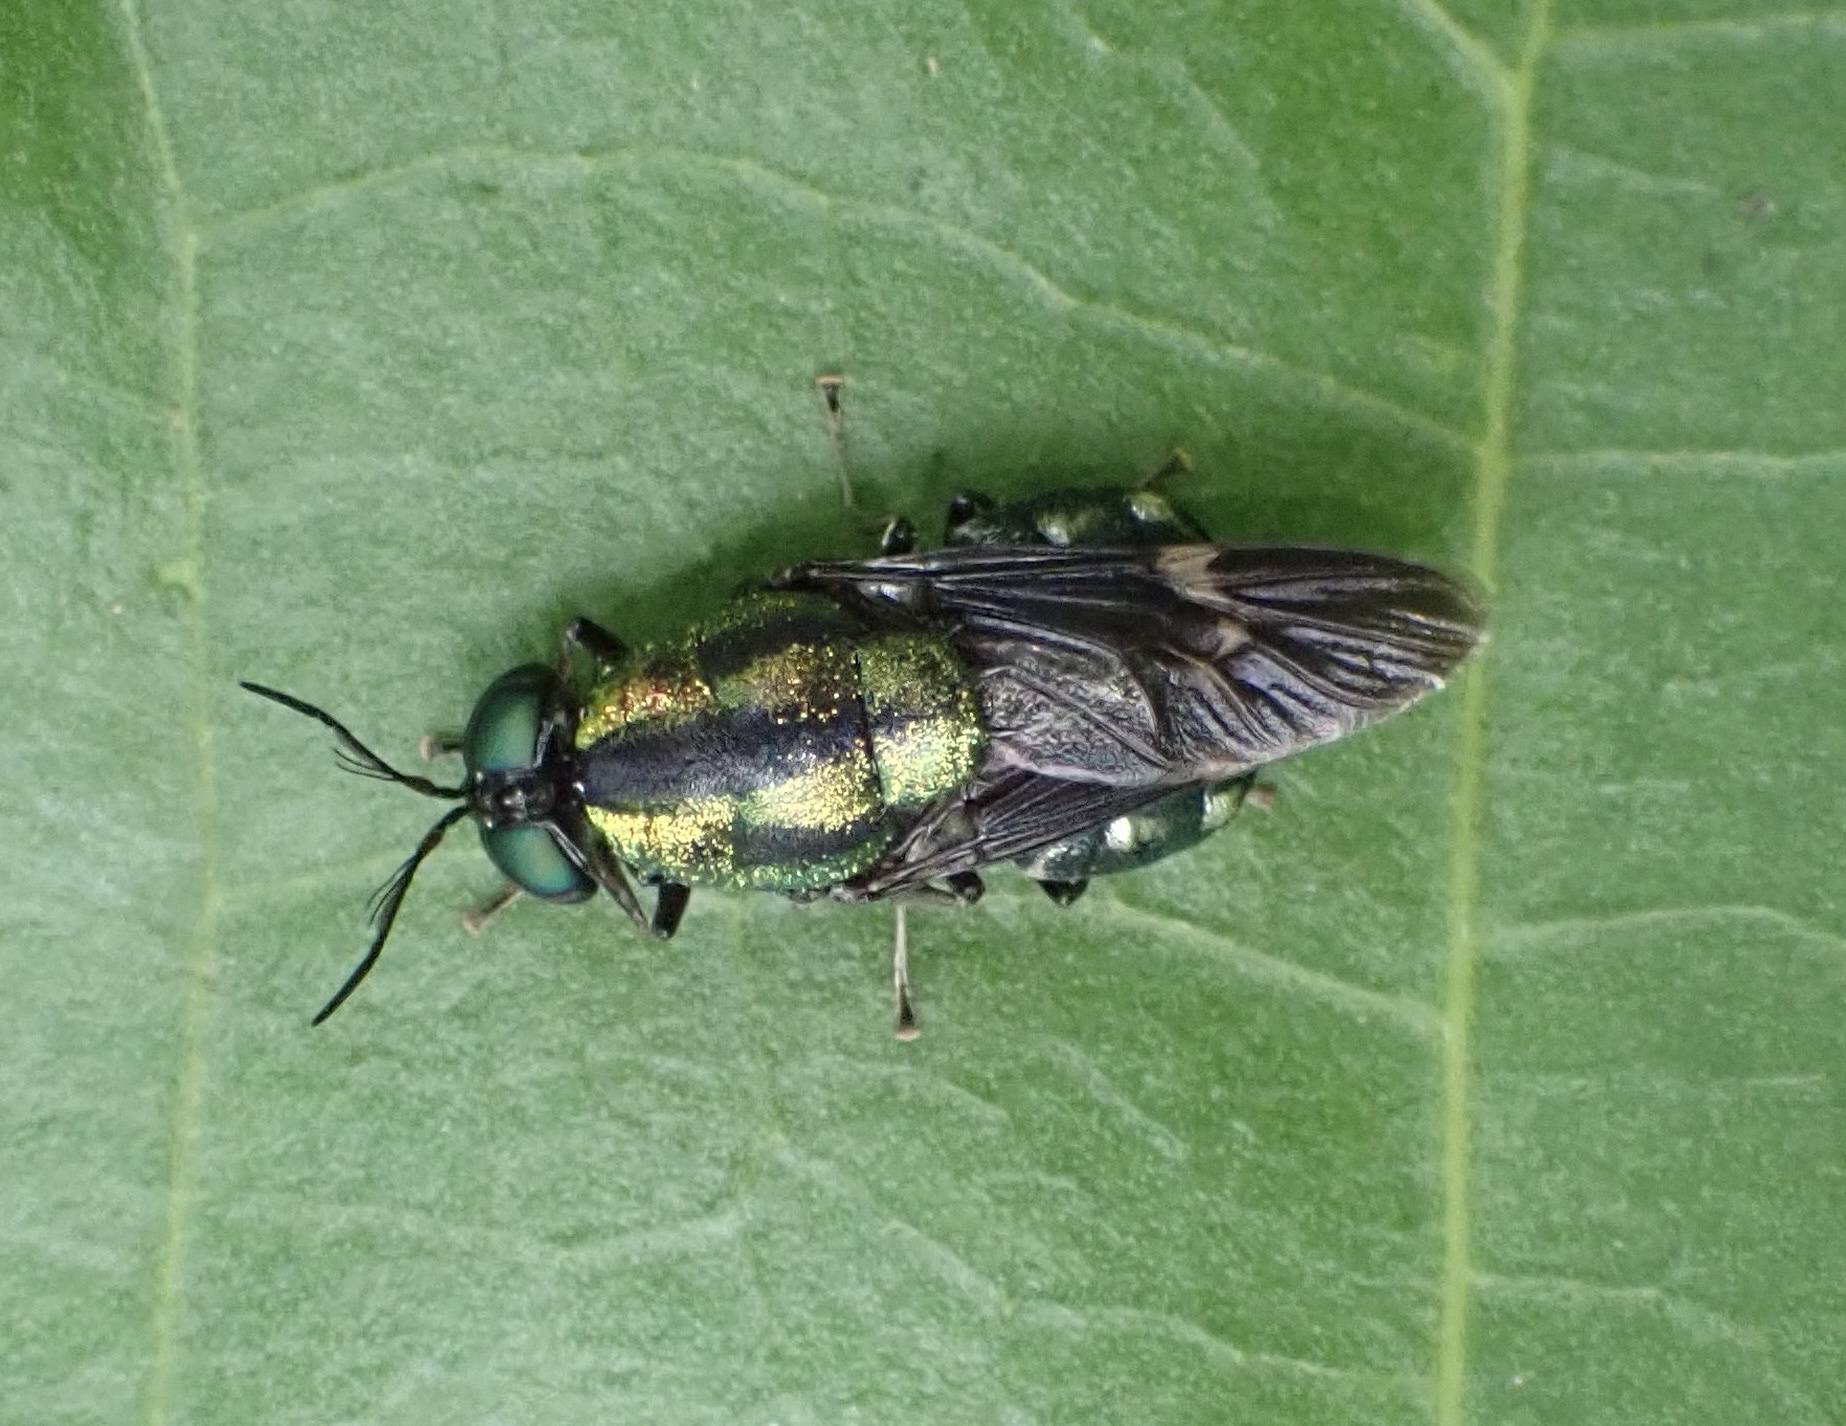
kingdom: Animalia
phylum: Arthropoda
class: Insecta
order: Diptera
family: Stratiomyidae
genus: Ptilocera
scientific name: Ptilocera continua
